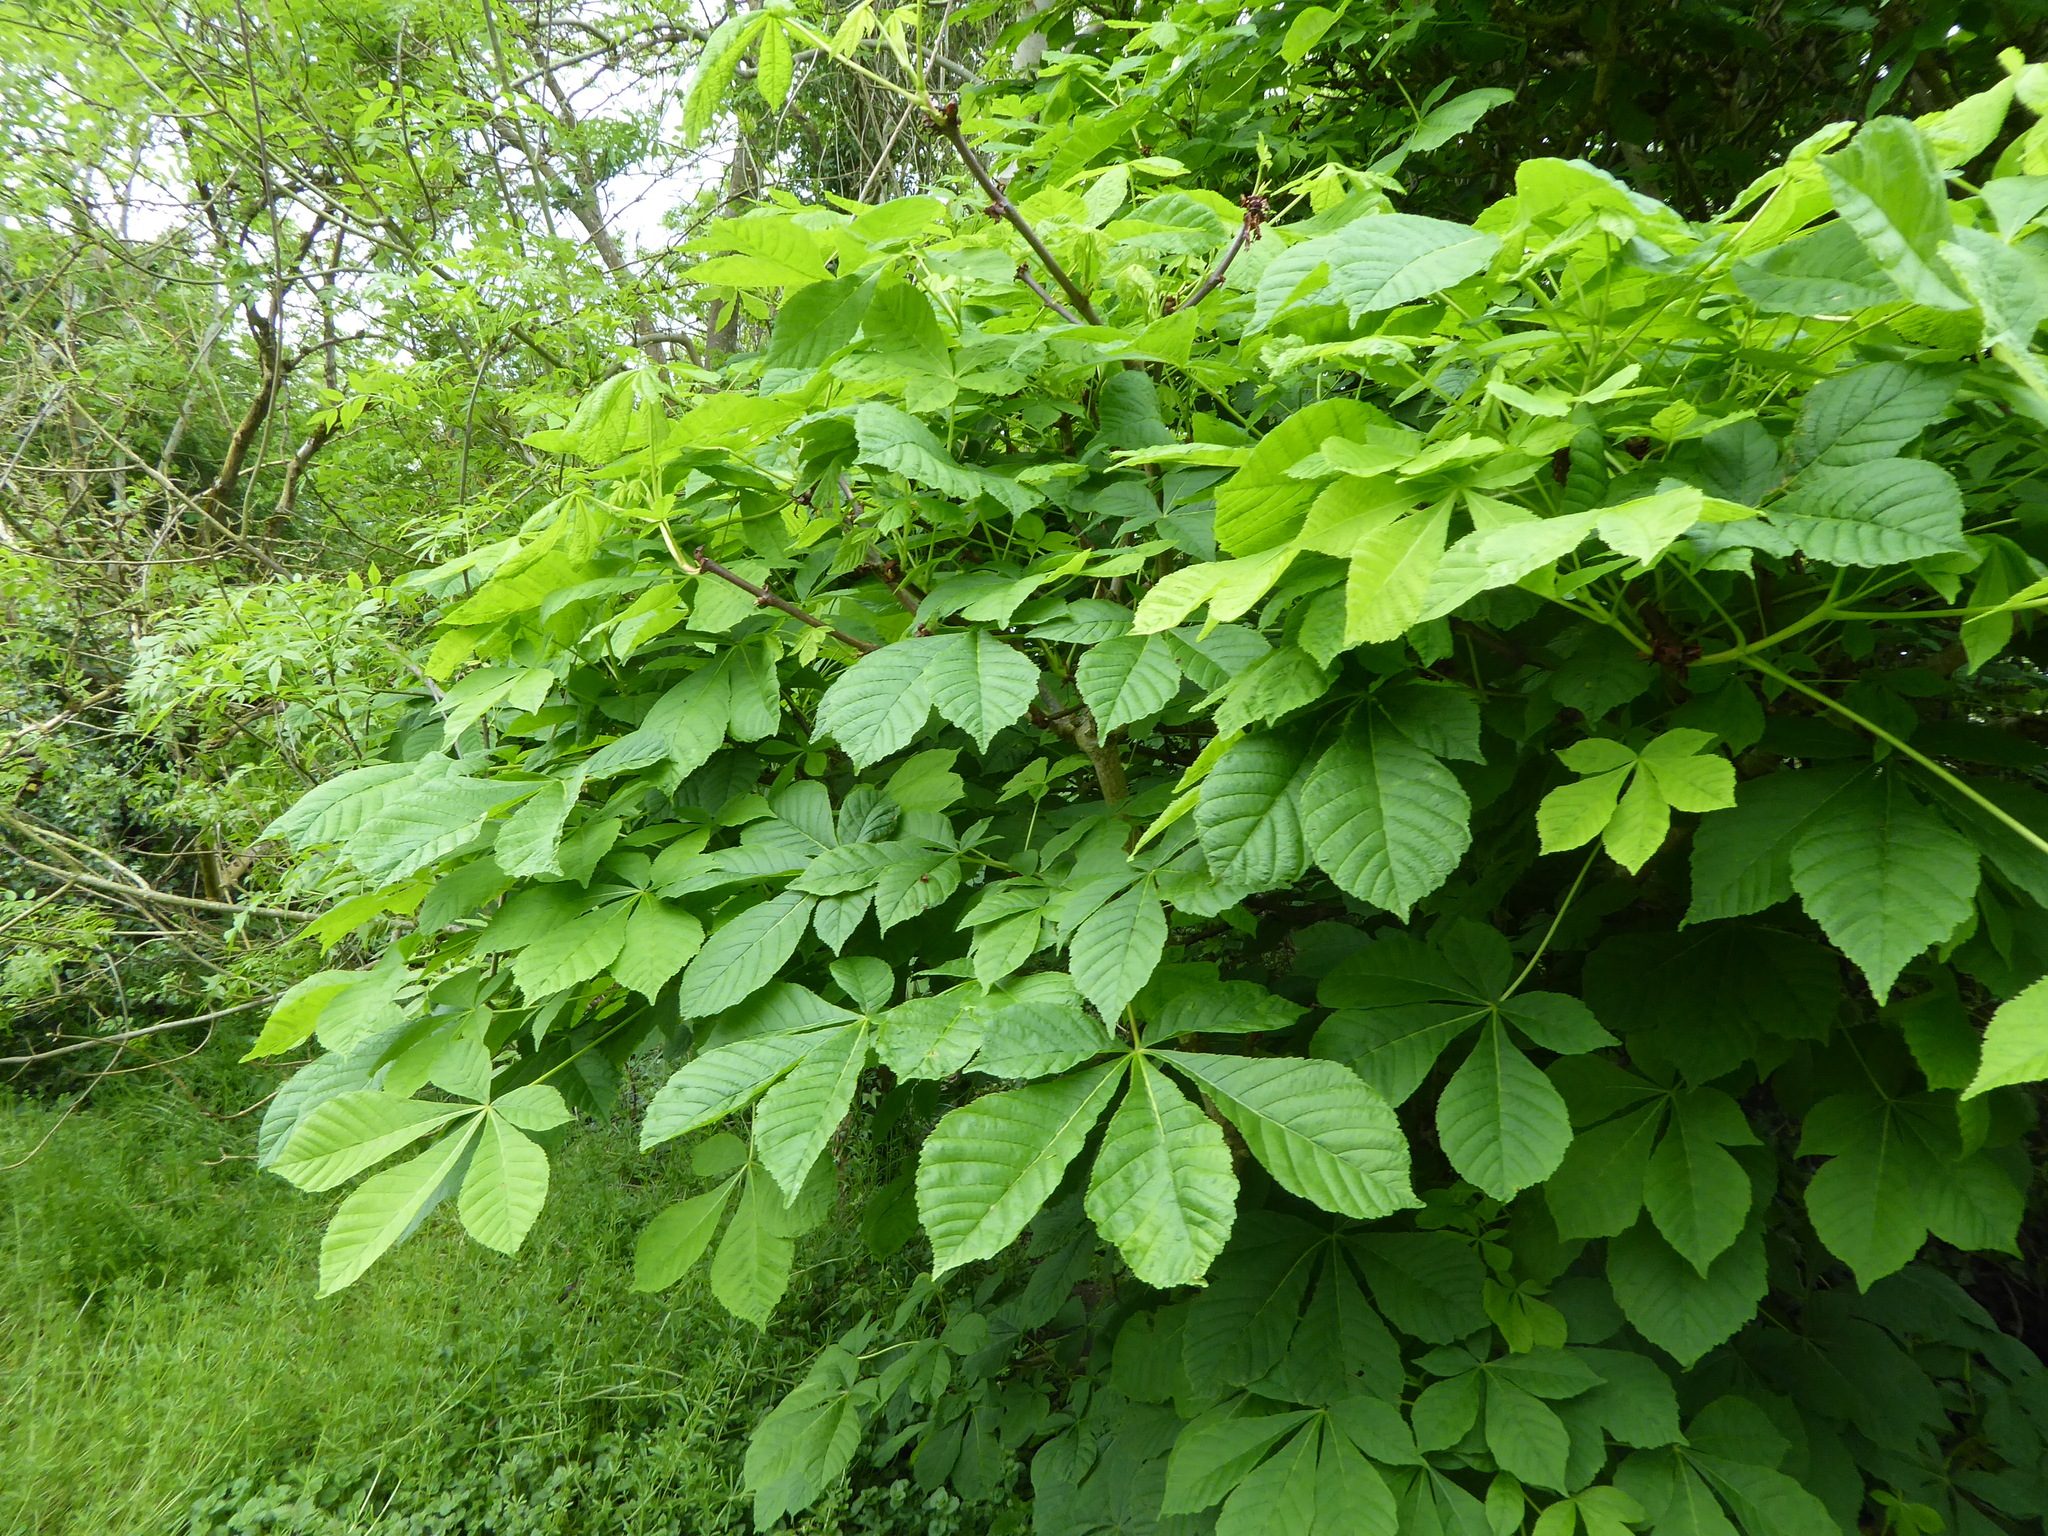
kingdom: Plantae
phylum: Tracheophyta
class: Magnoliopsida
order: Sapindales
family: Sapindaceae
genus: Aesculus
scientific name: Aesculus hippocastanum
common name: Horse-chestnut
